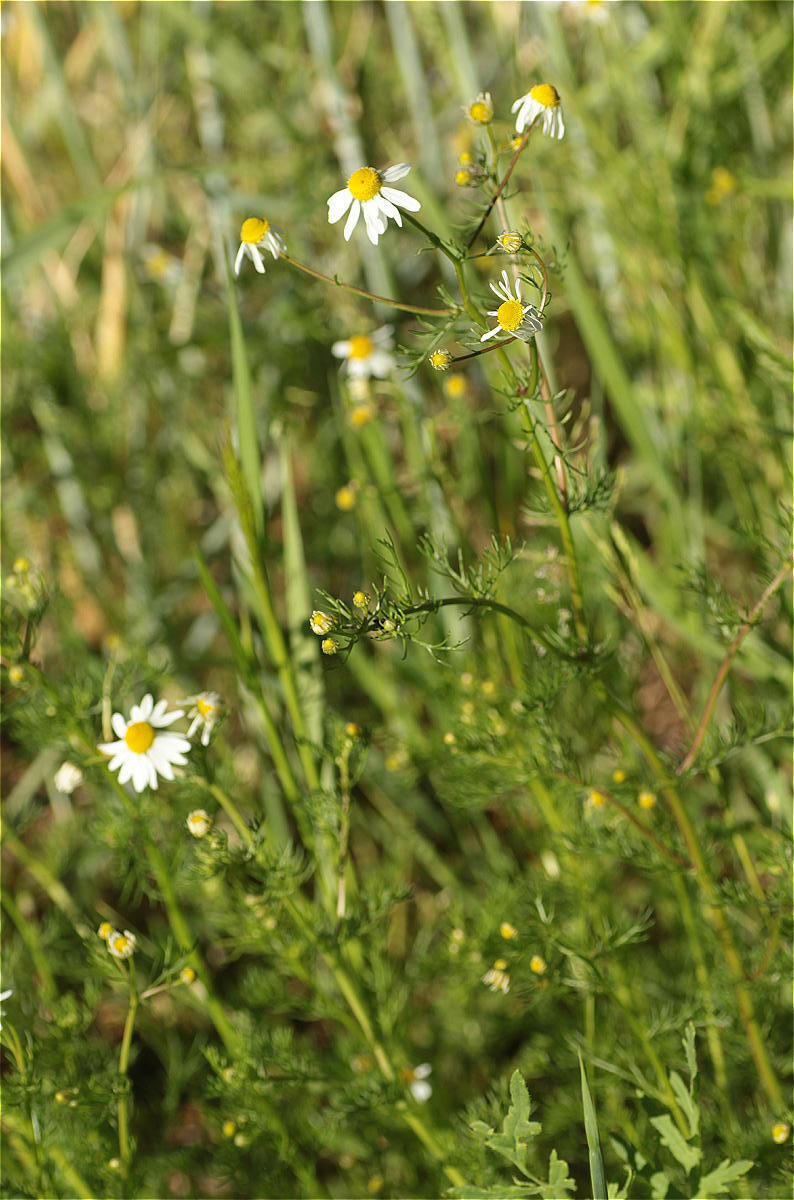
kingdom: Plantae
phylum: Tracheophyta
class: Magnoliopsida
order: Asterales
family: Asteraceae
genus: Matricaria
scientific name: Matricaria chamomilla
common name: Scented mayweed
